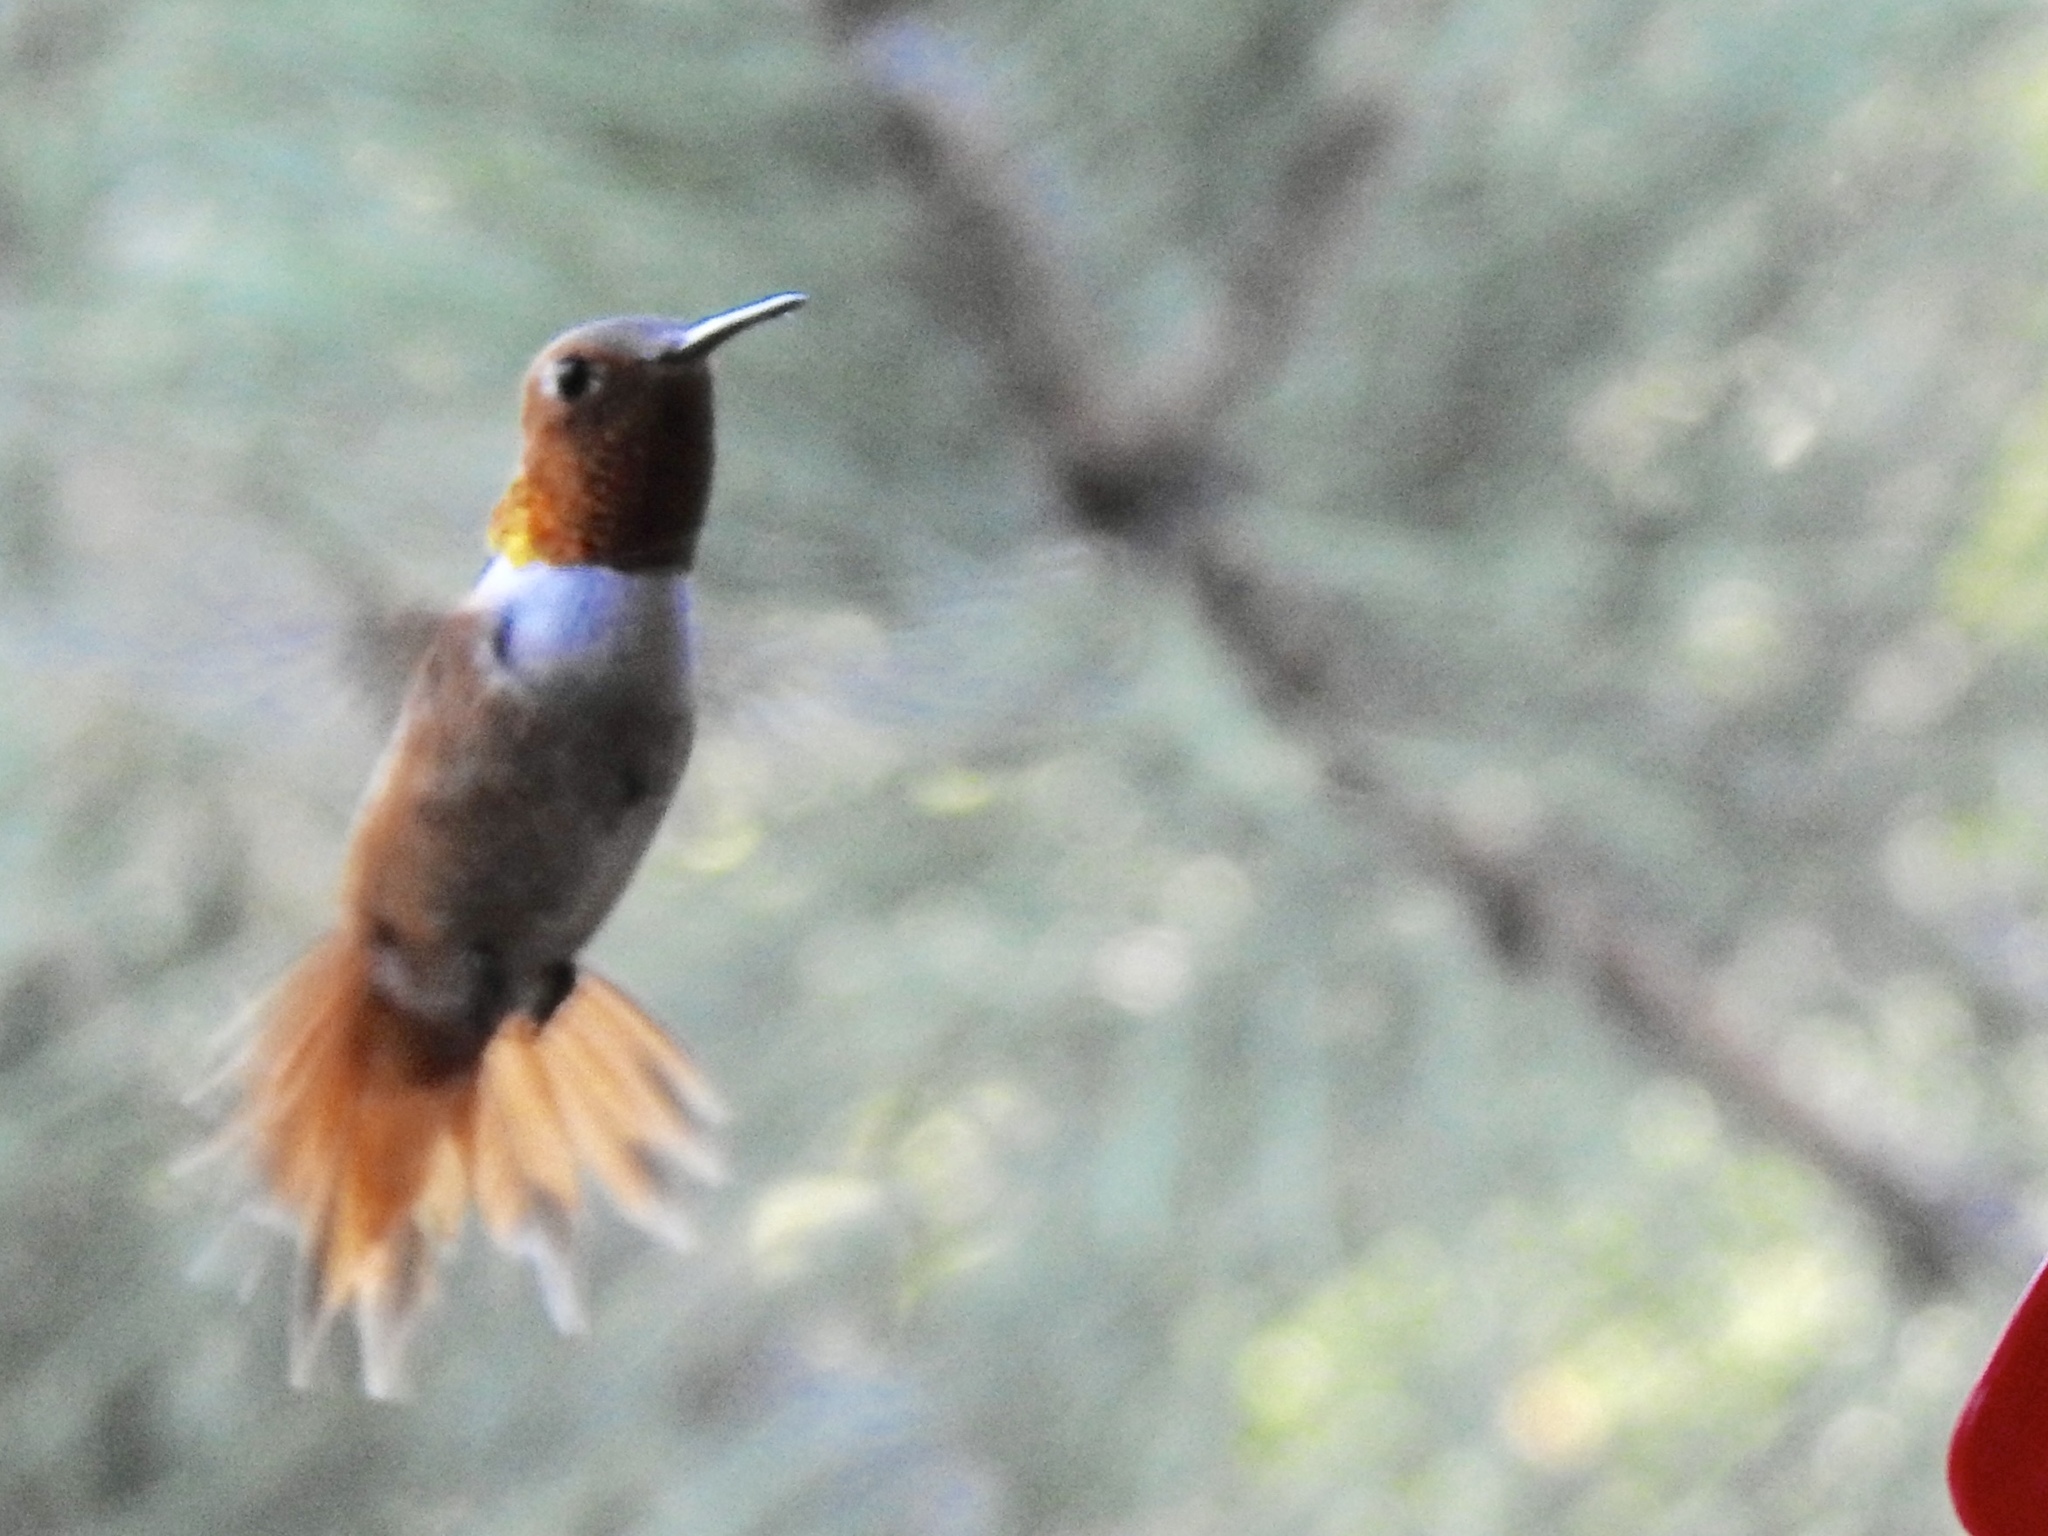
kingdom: Animalia
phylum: Chordata
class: Aves
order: Apodiformes
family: Trochilidae
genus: Selasphorus
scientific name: Selasphorus rufus
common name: Rufous hummingbird
